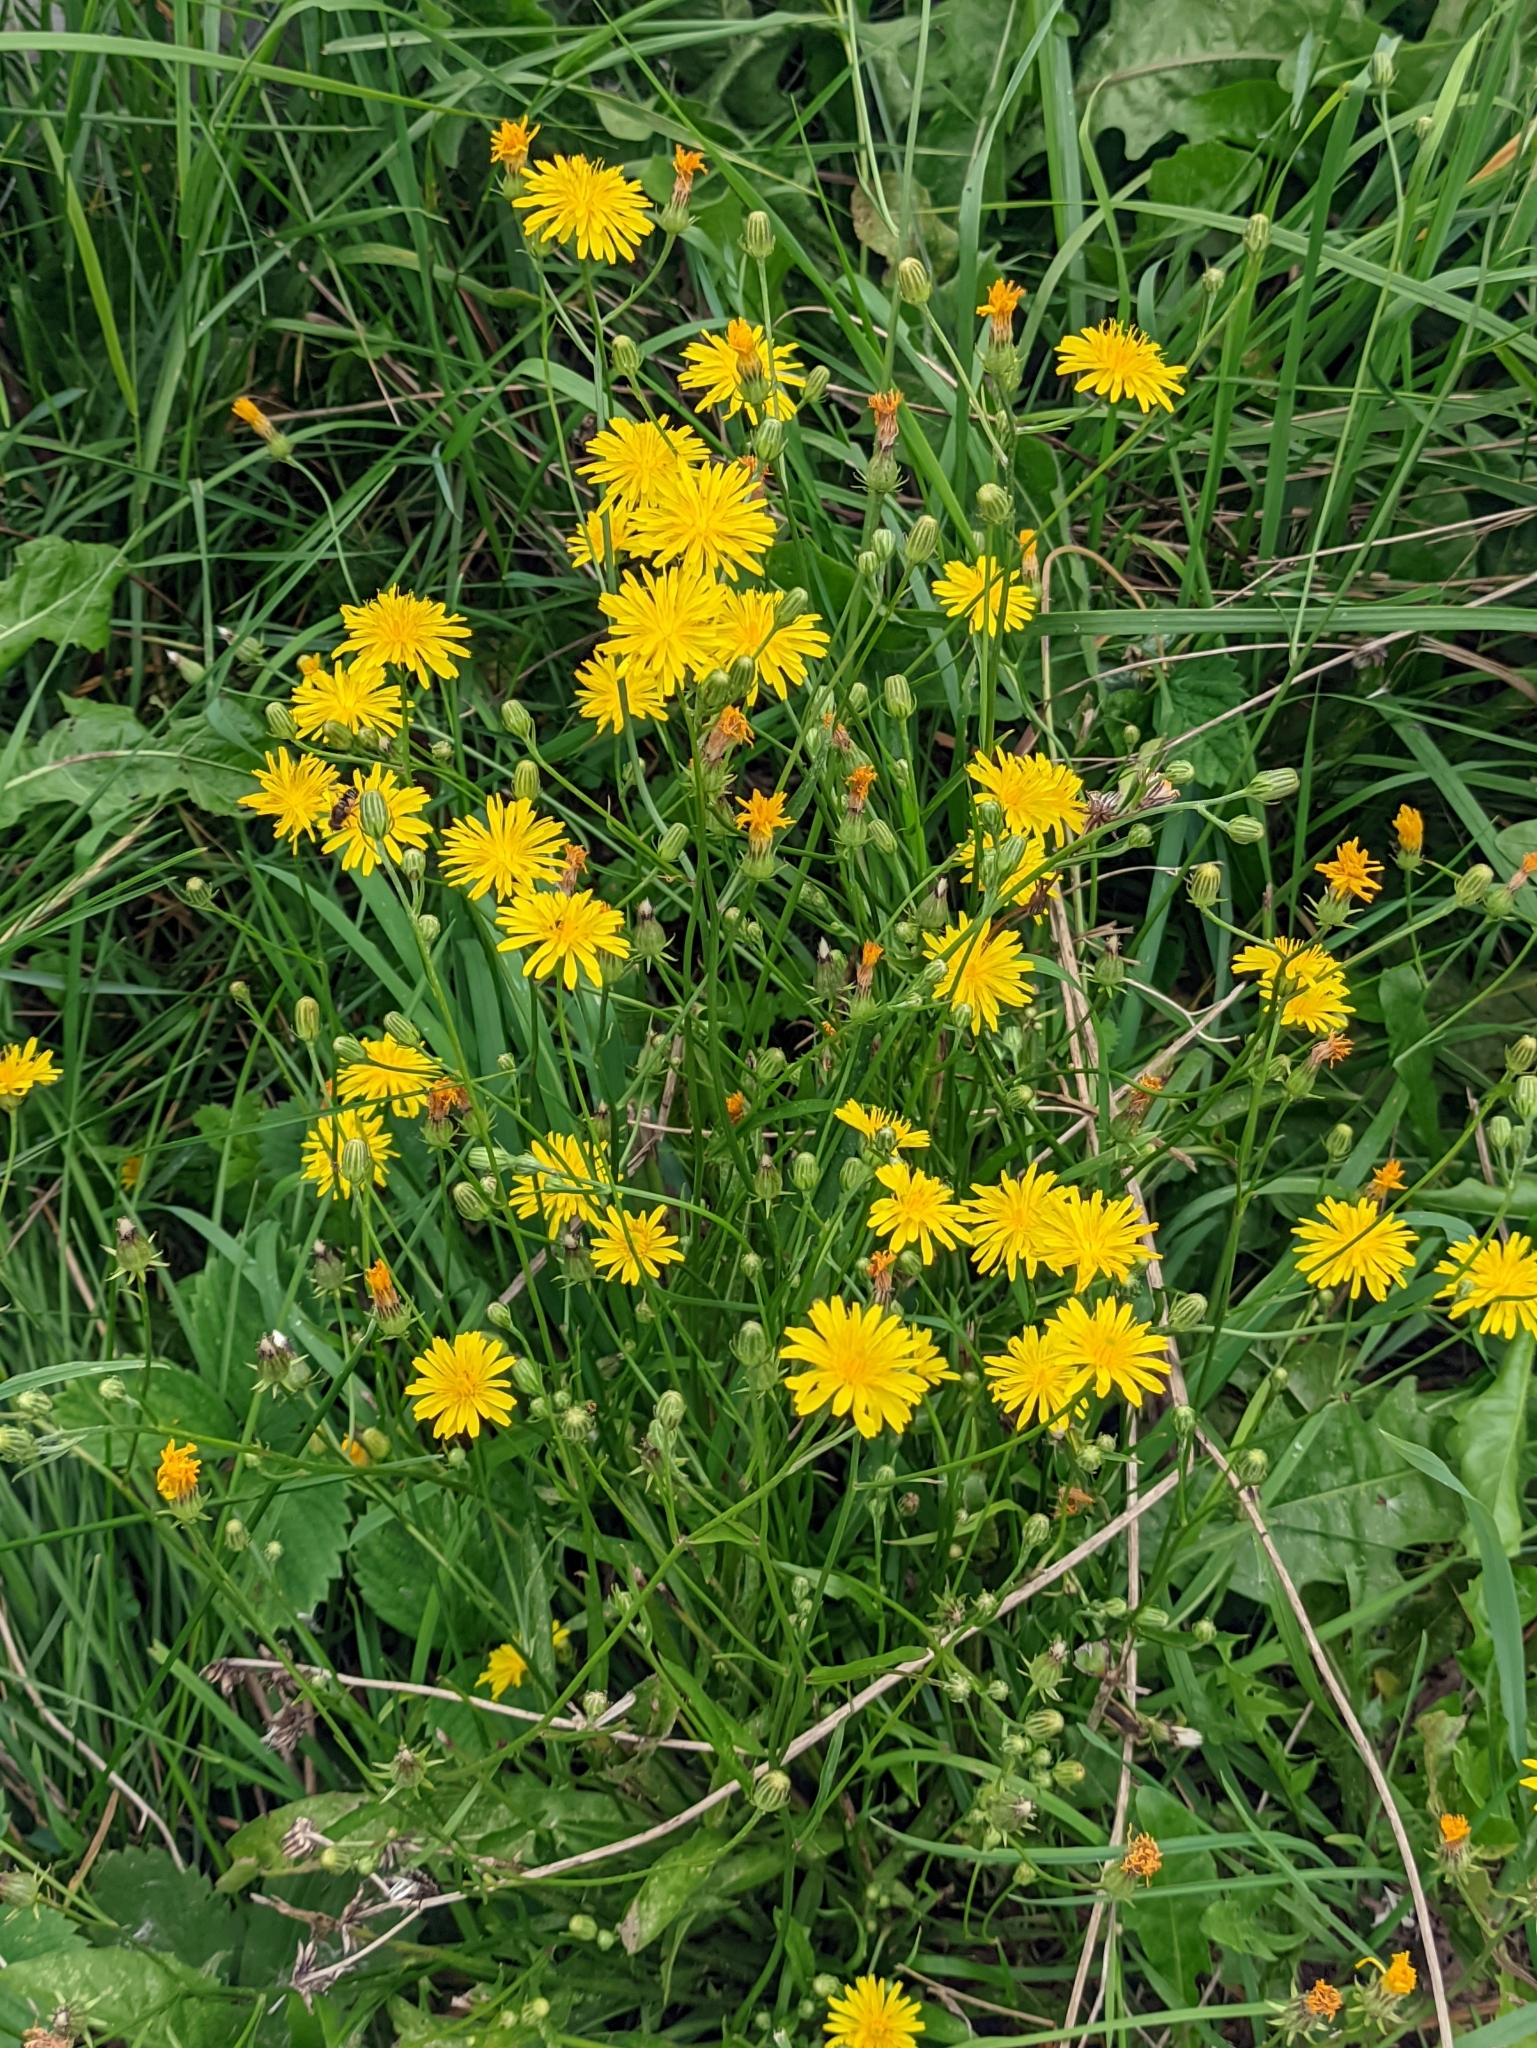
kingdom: Plantae
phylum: Tracheophyta
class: Magnoliopsida
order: Asterales
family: Asteraceae
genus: Crepis
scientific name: Crepis biennis
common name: Rough hawk's-beard
